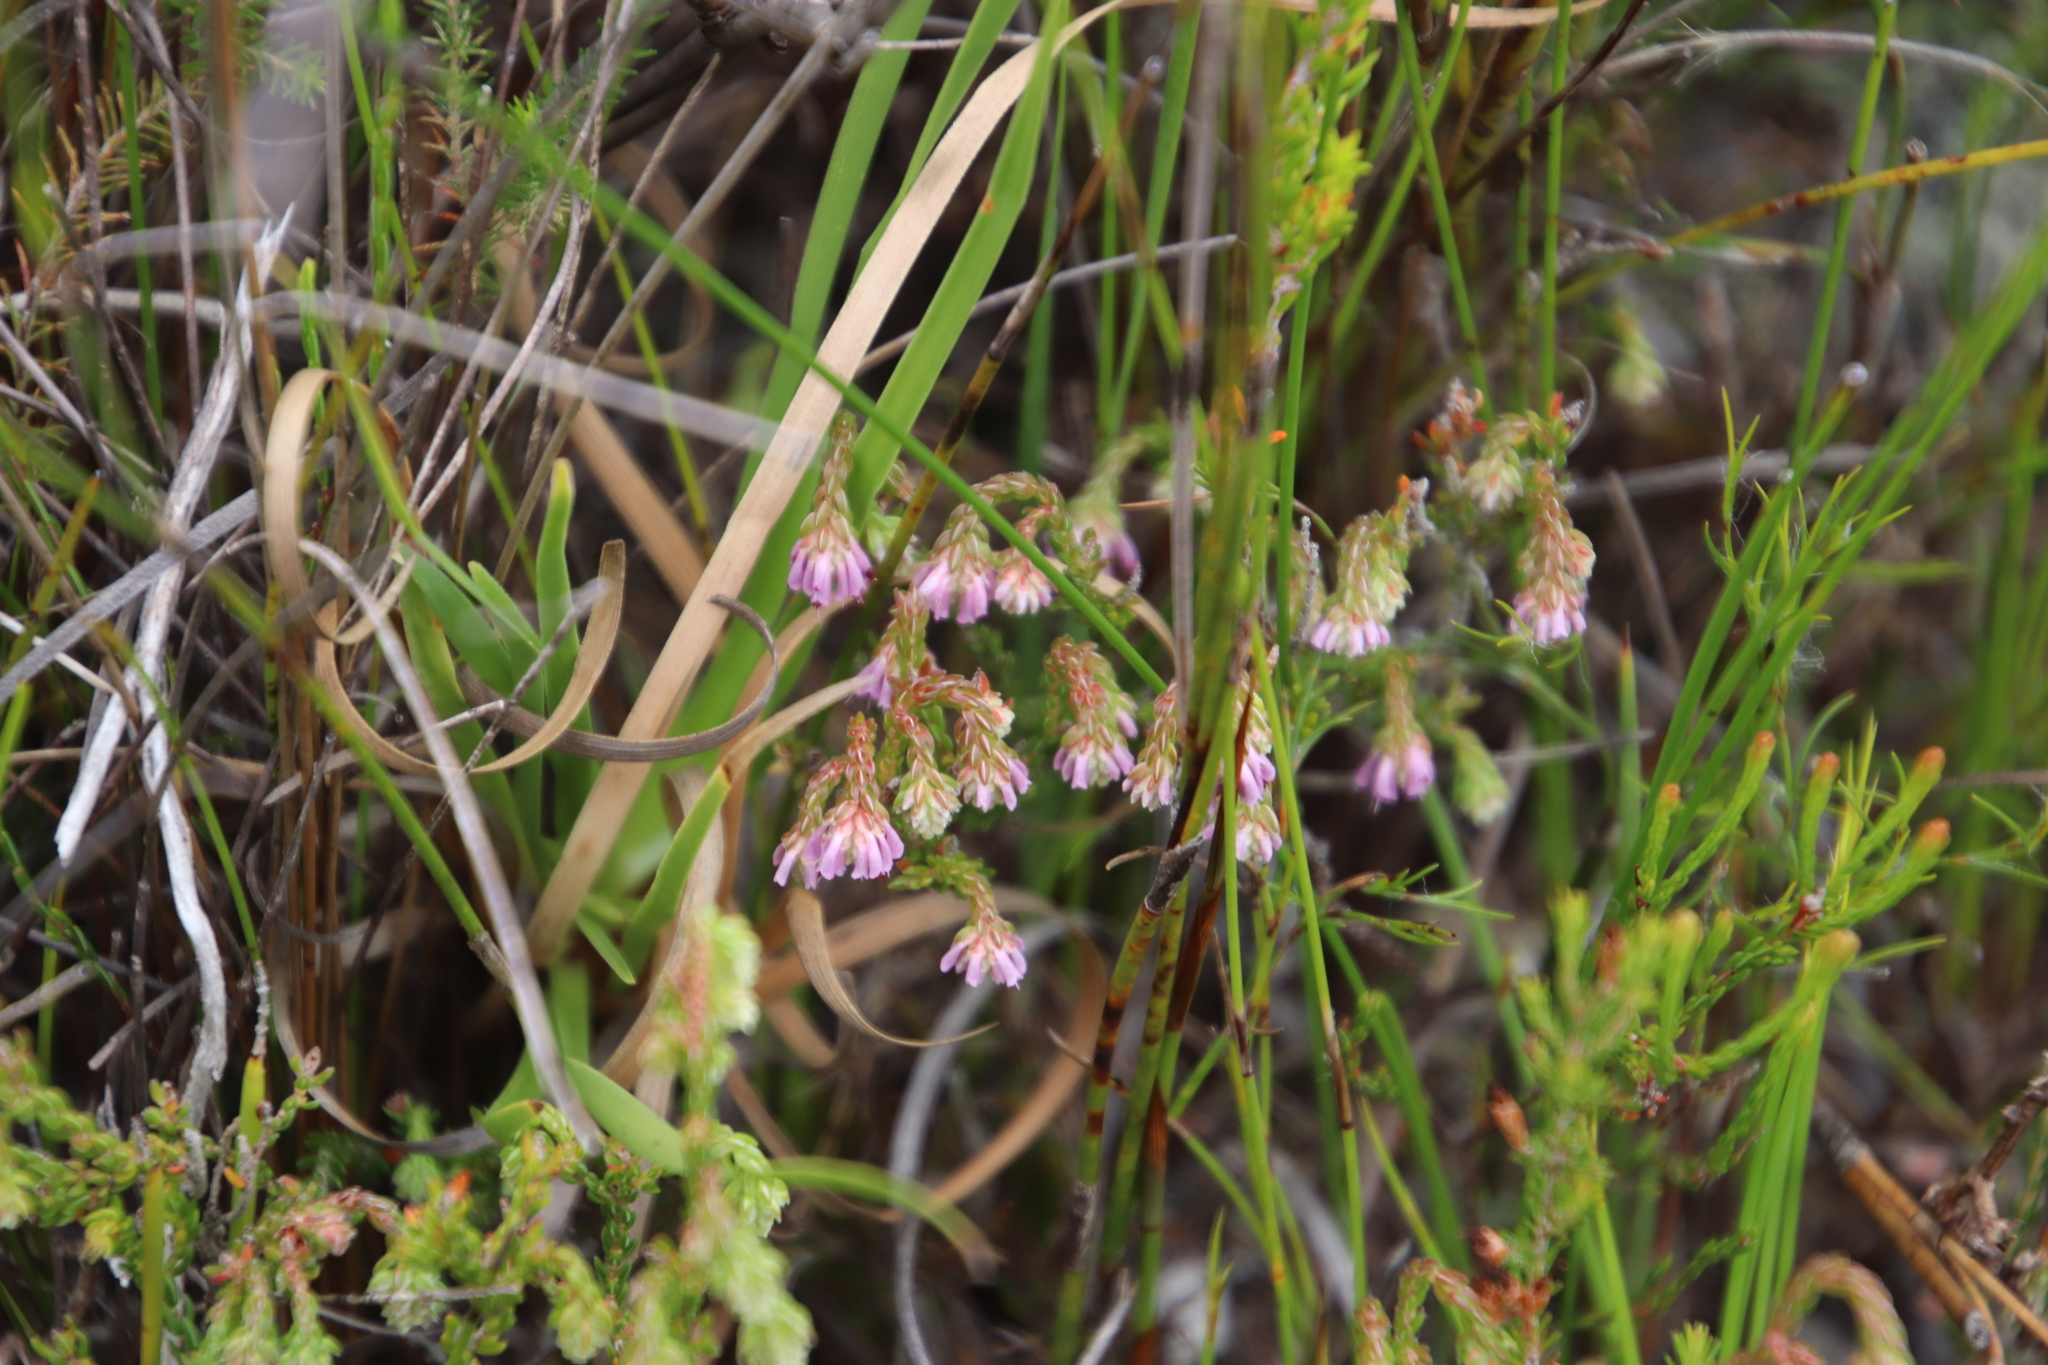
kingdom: Plantae
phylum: Tracheophyta
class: Magnoliopsida
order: Ericales
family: Ericaceae
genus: Erica
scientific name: Erica labialis
